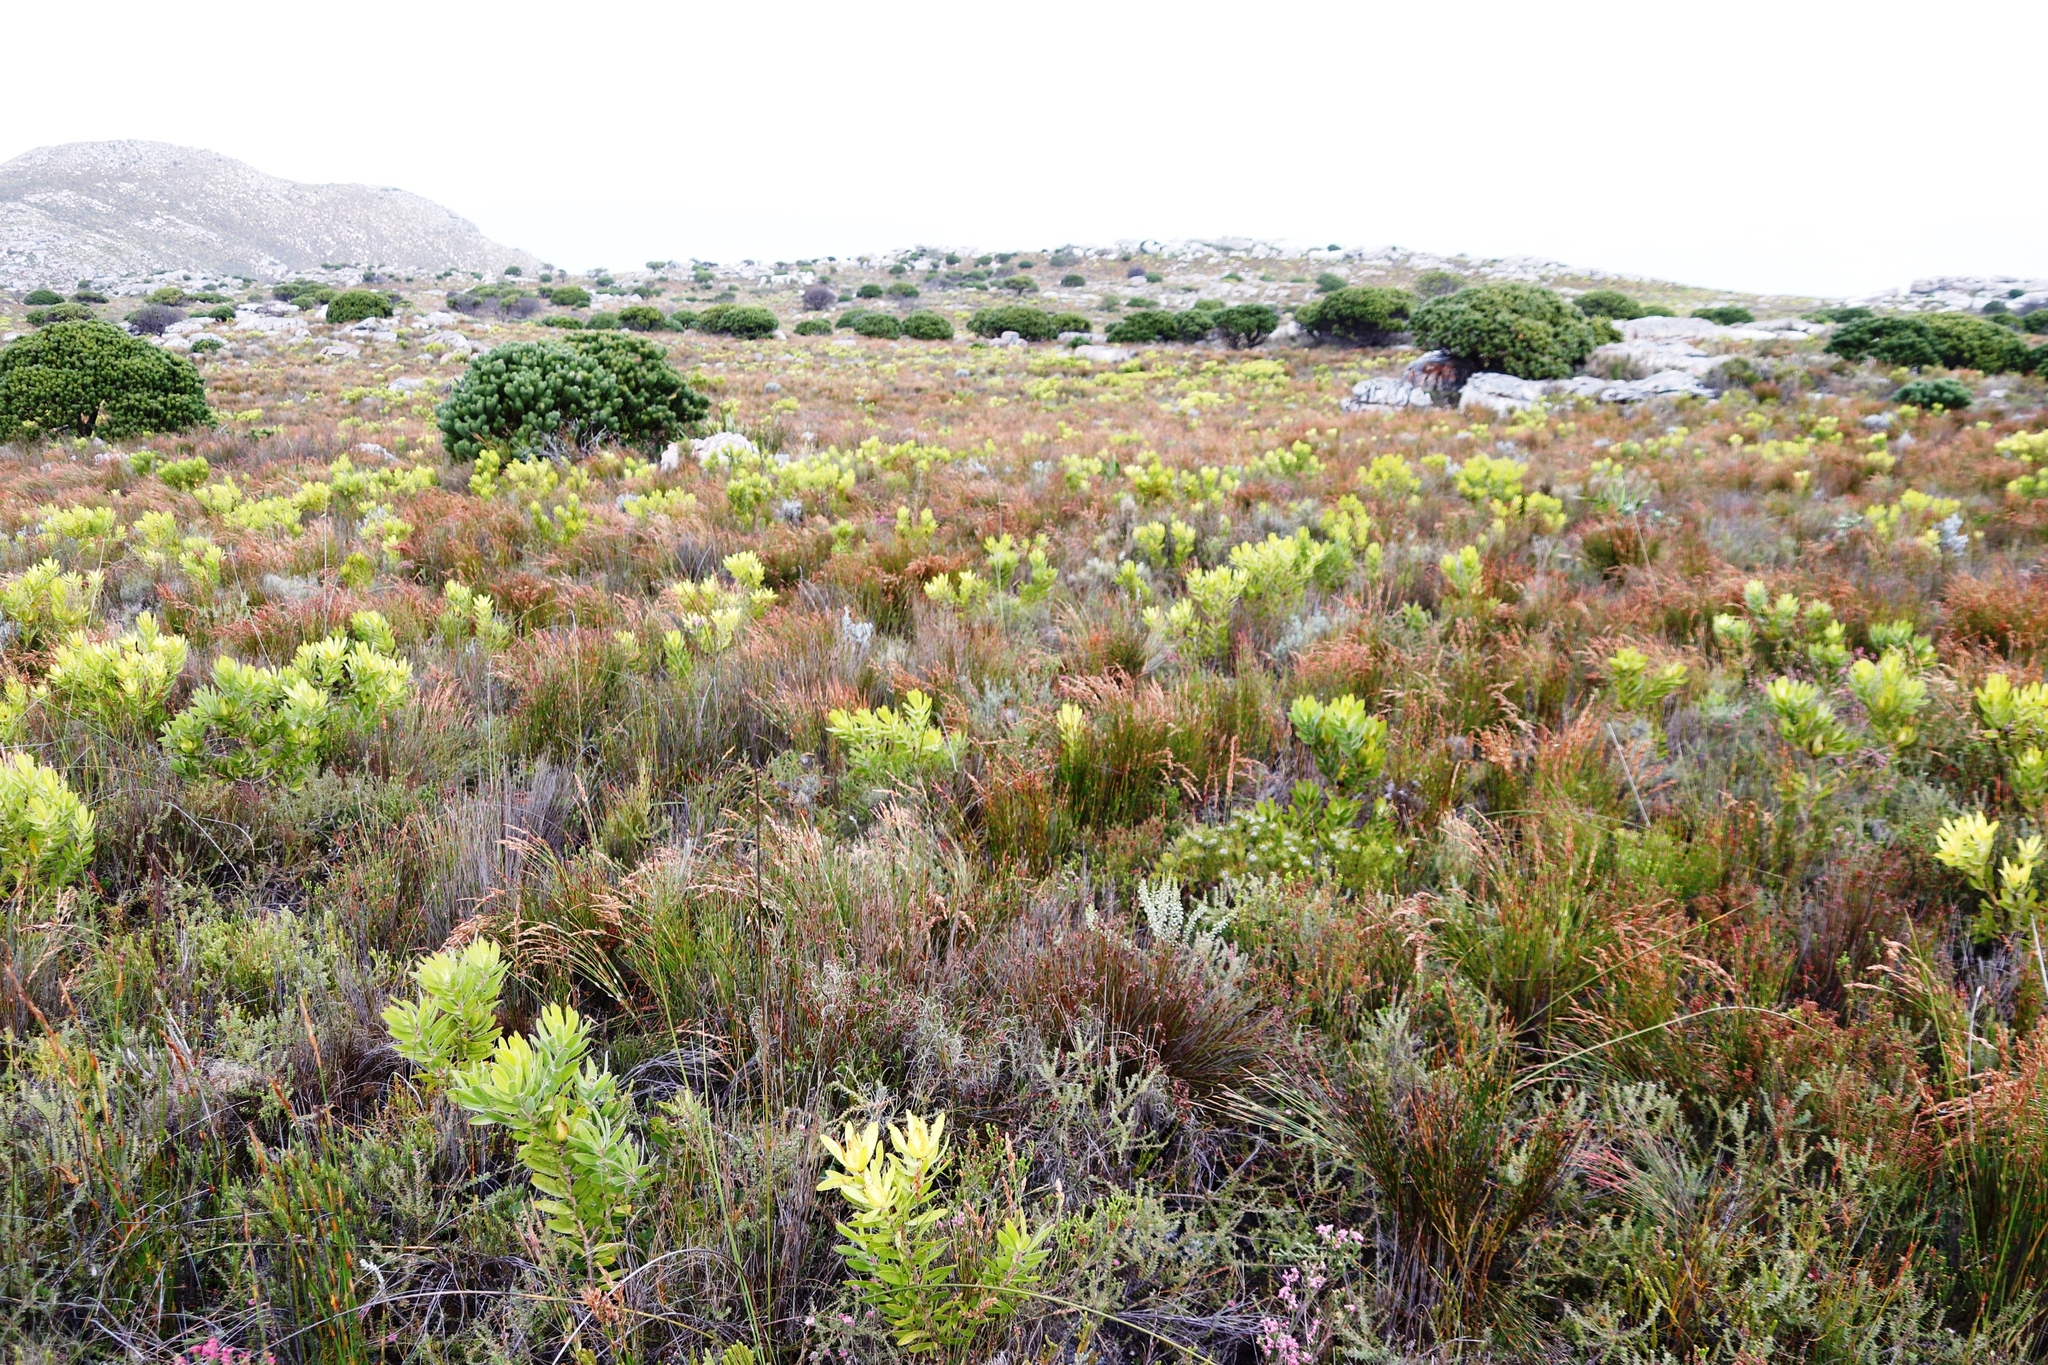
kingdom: Plantae
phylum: Tracheophyta
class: Magnoliopsida
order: Proteales
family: Proteaceae
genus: Leucadendron
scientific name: Leucadendron laureolum
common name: Golden sunshinebush
